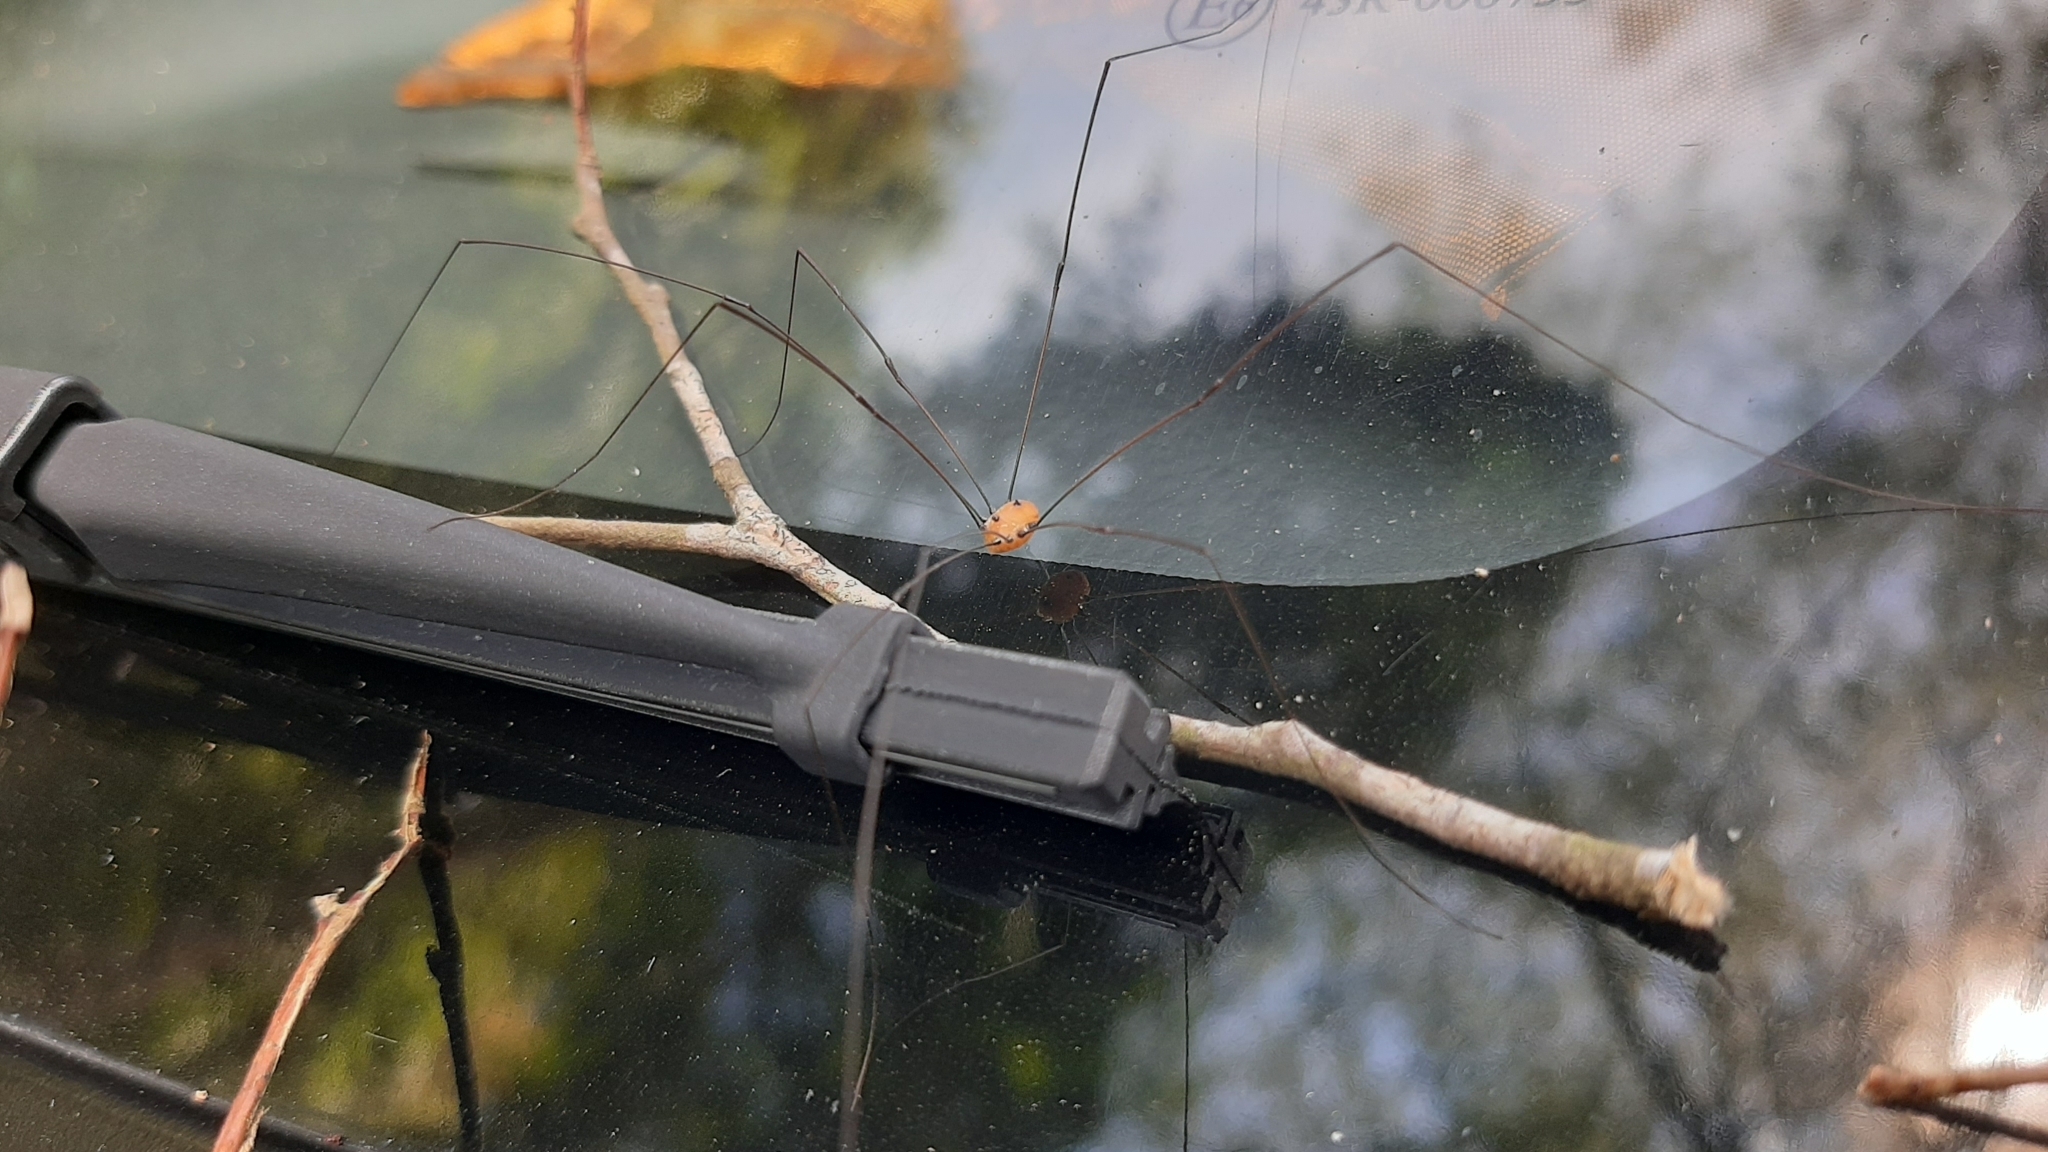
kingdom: Animalia
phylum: Arthropoda
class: Arachnida
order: Opiliones
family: Sclerosomatidae
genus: Pseudogagrella
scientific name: Pseudogagrella splendens
